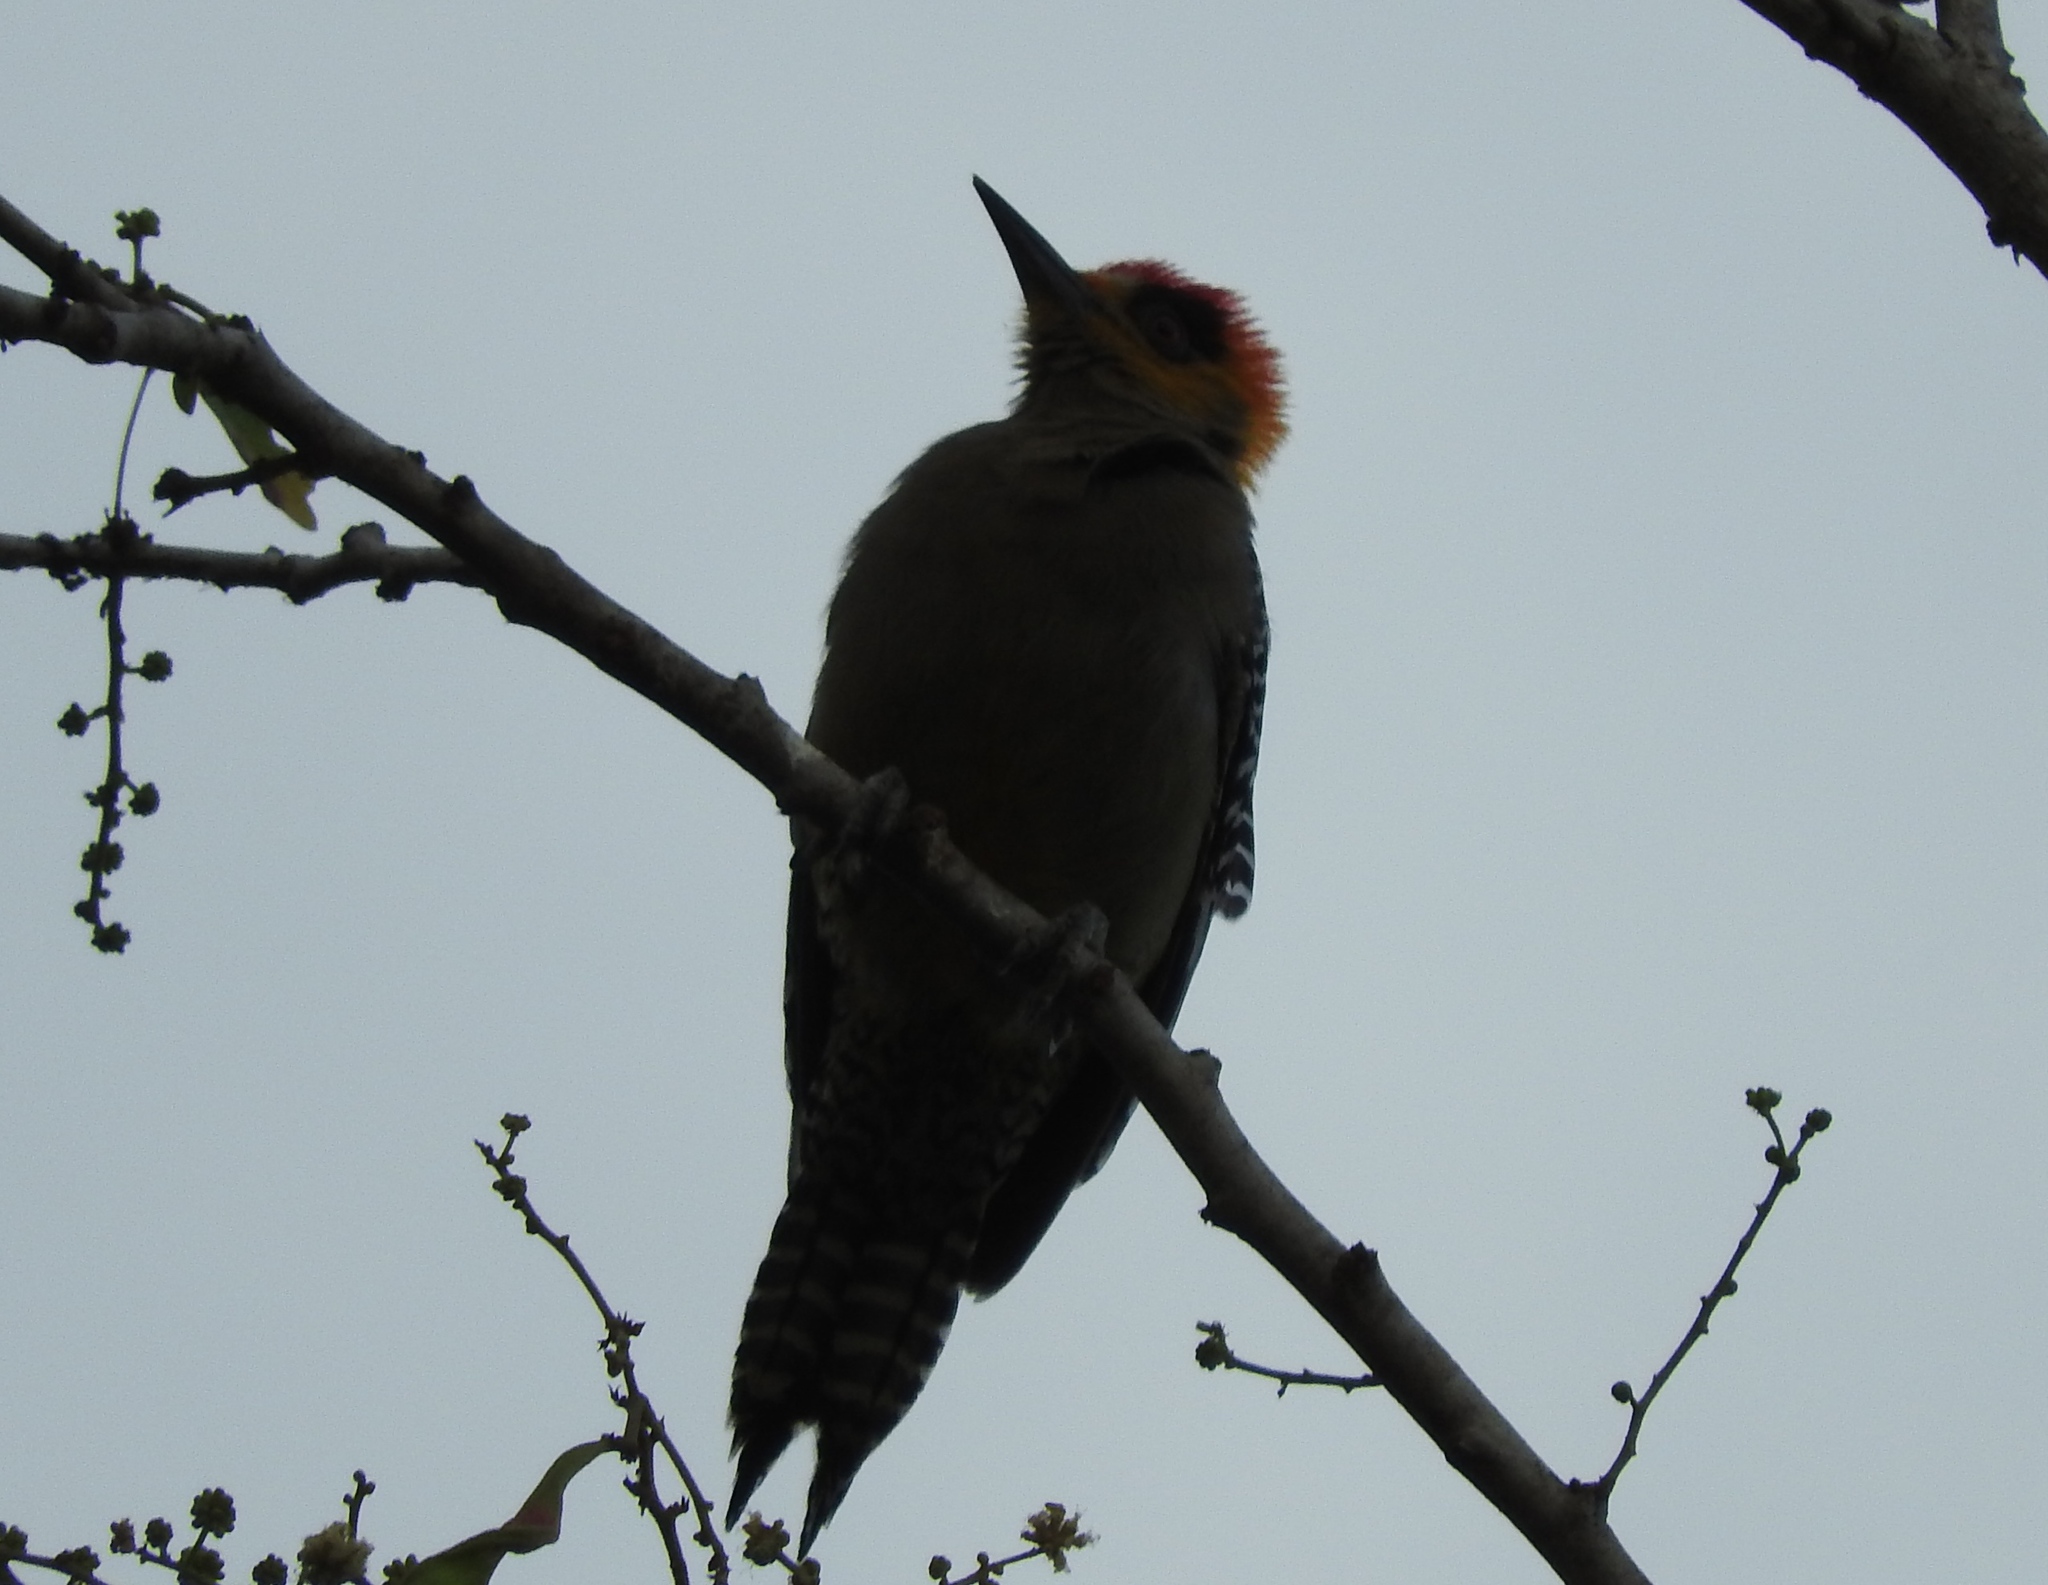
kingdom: Animalia
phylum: Chordata
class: Aves
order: Piciformes
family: Picidae
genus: Melanerpes
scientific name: Melanerpes chrysogenys
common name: Golden-cheeked woodpecker
